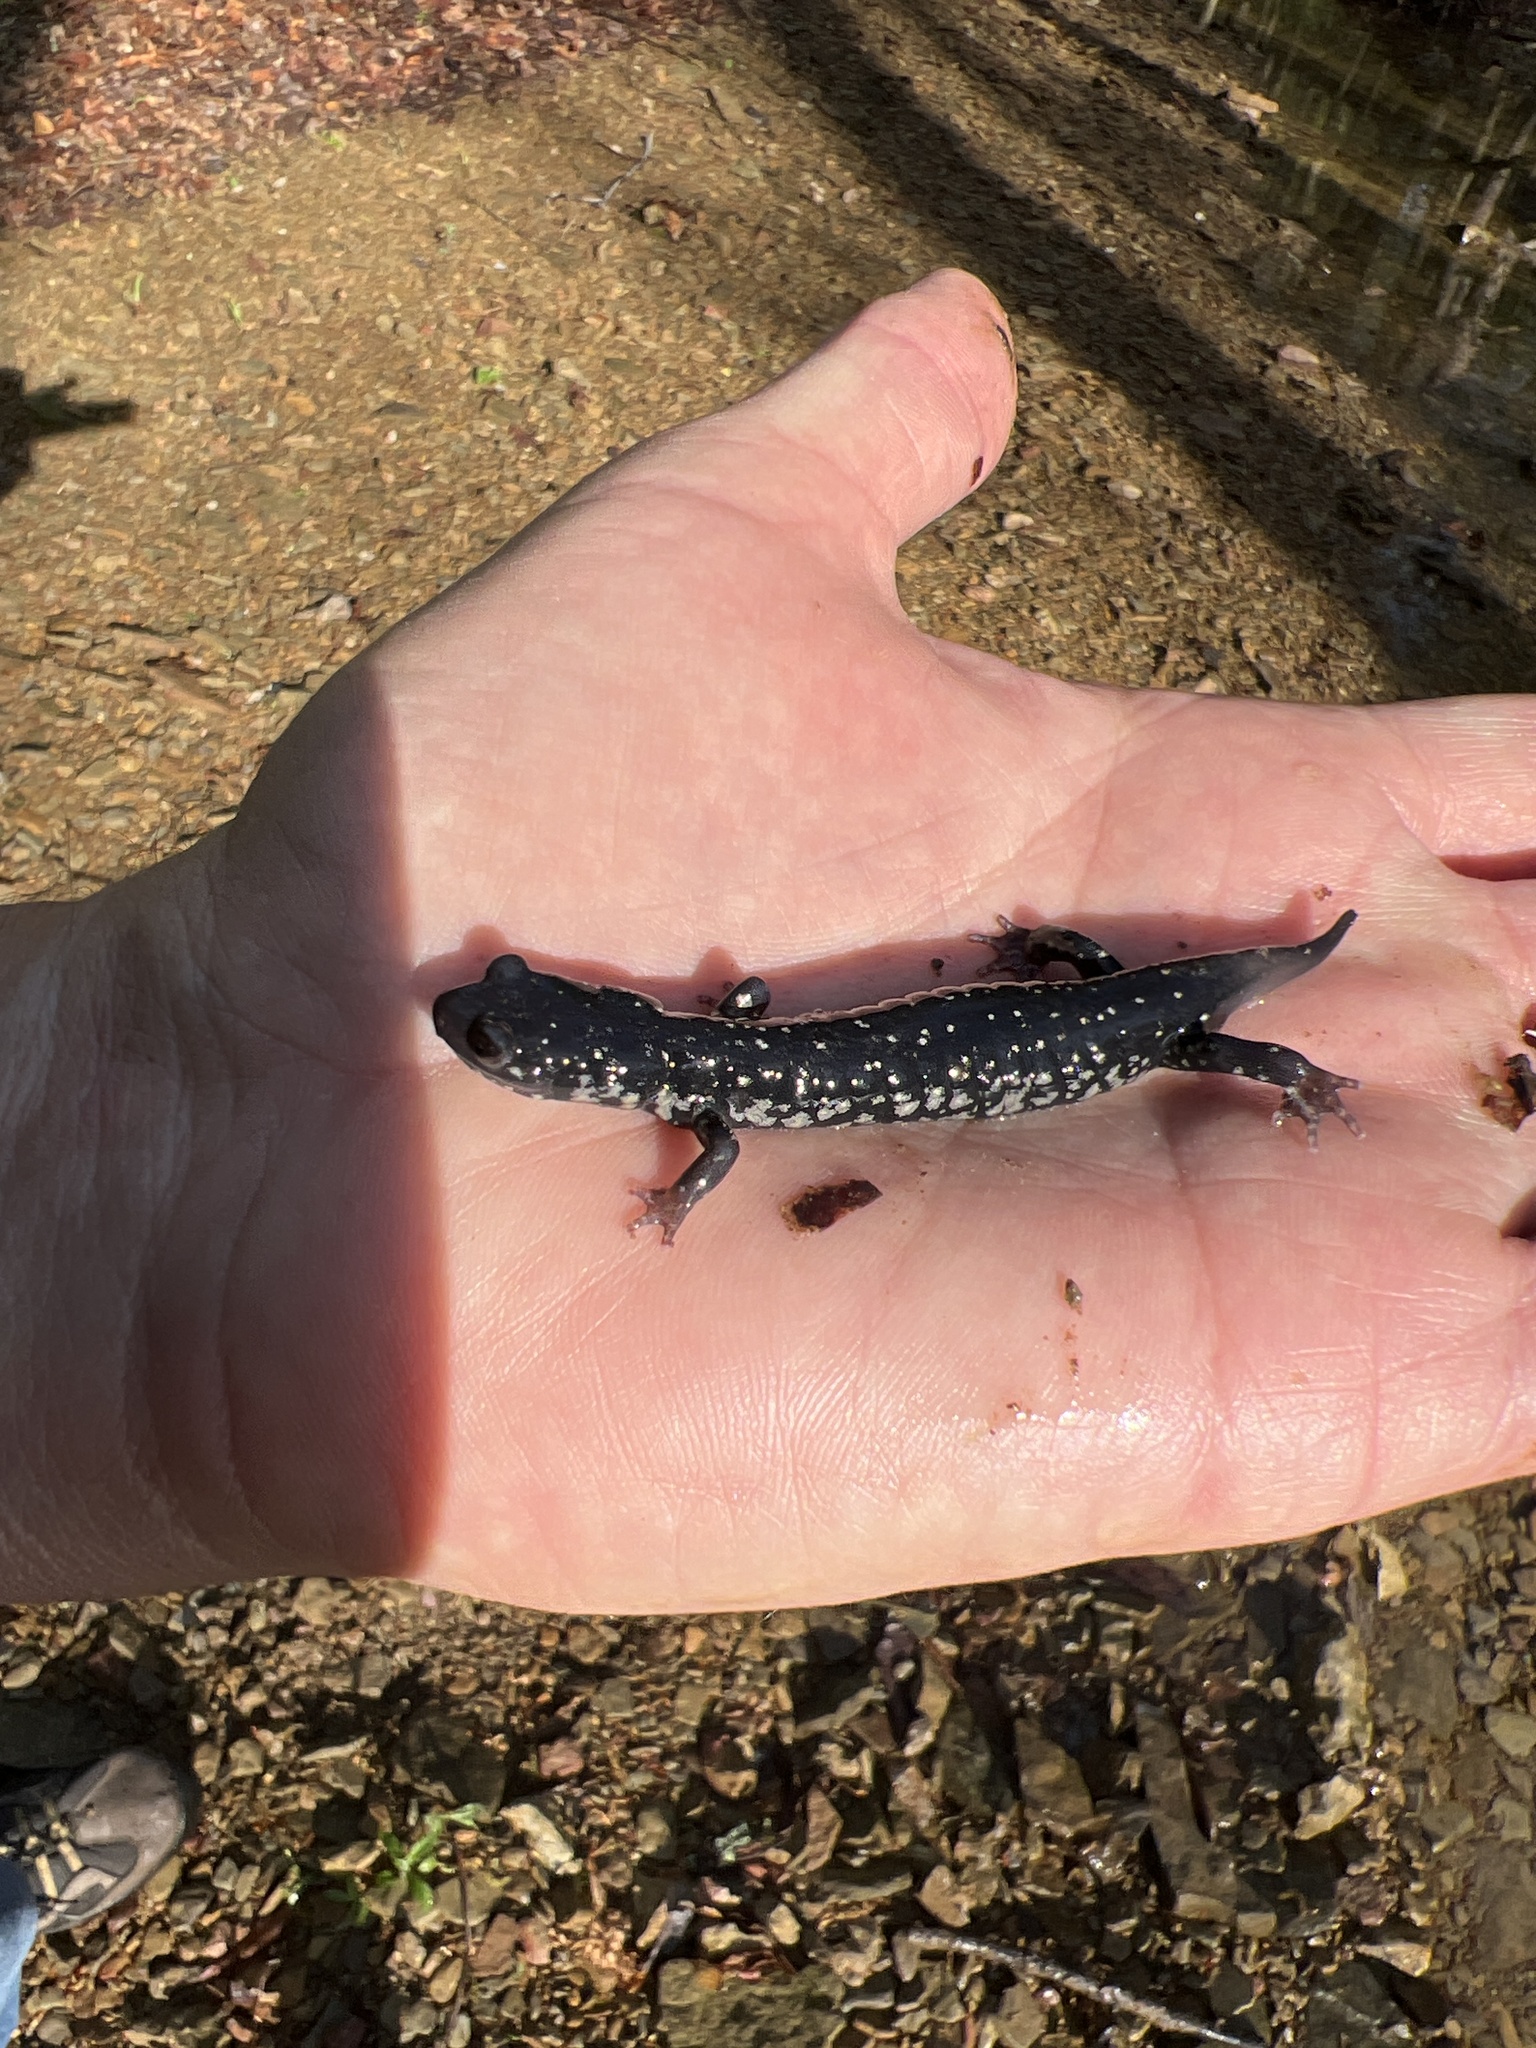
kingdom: Animalia
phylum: Chordata
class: Amphibia
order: Caudata
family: Plethodontidae
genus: Plethodon
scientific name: Plethodon glutinosus
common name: Northern slimy salamander
